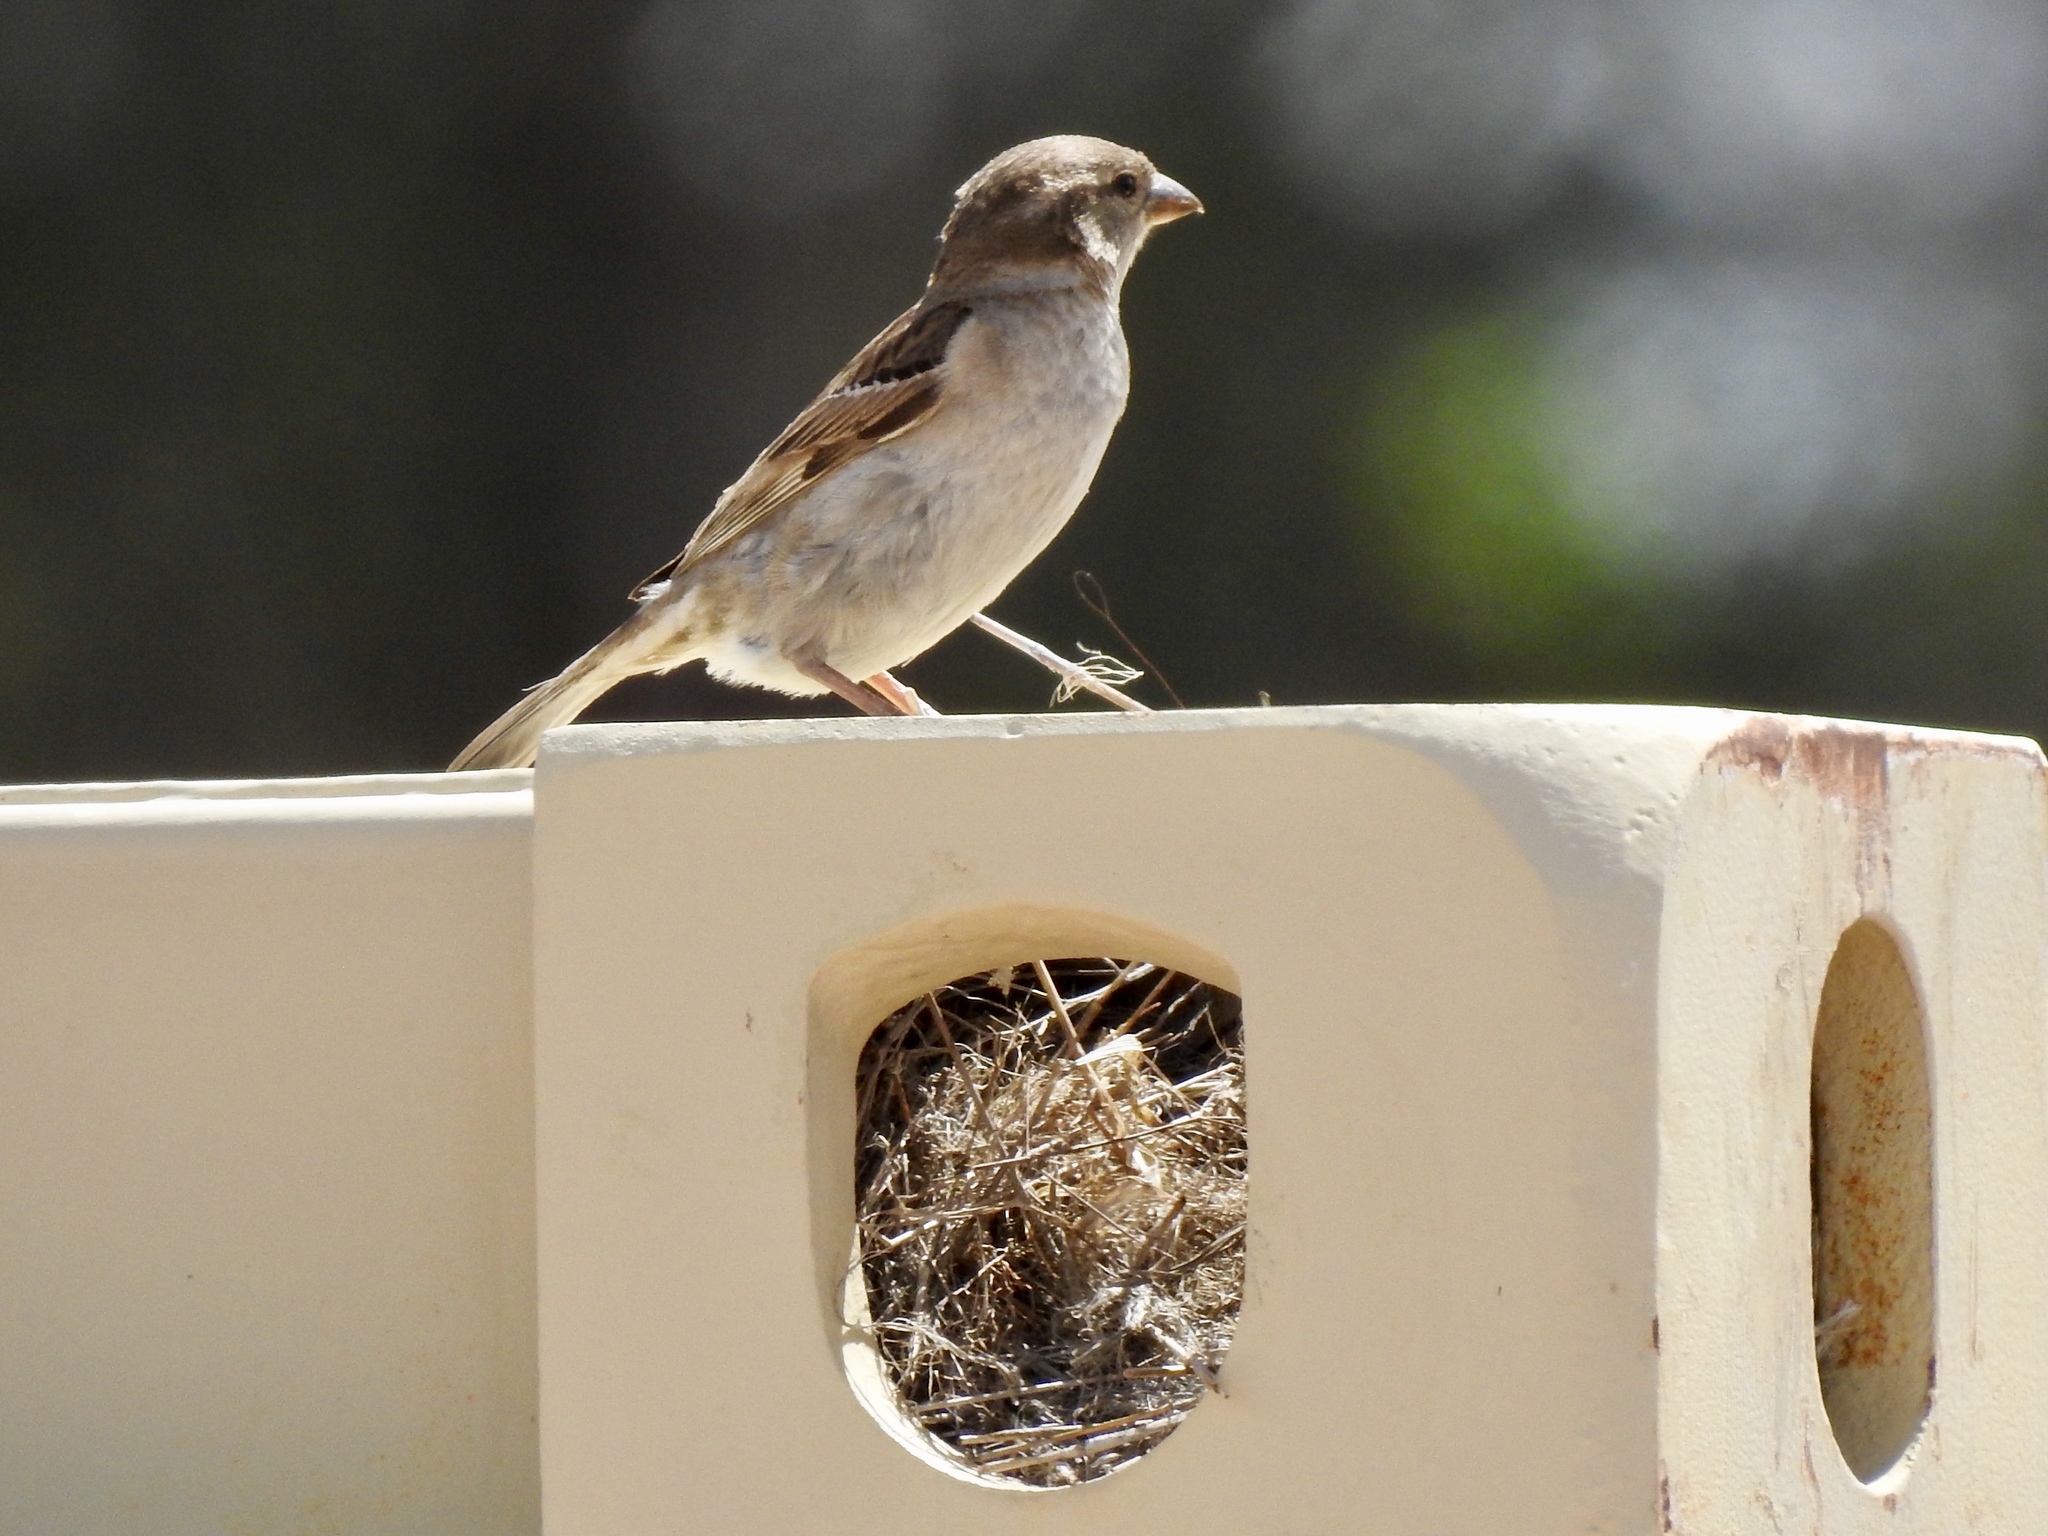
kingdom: Animalia
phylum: Chordata
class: Aves
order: Passeriformes
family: Passeridae
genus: Passer
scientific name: Passer domesticus
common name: House sparrow
